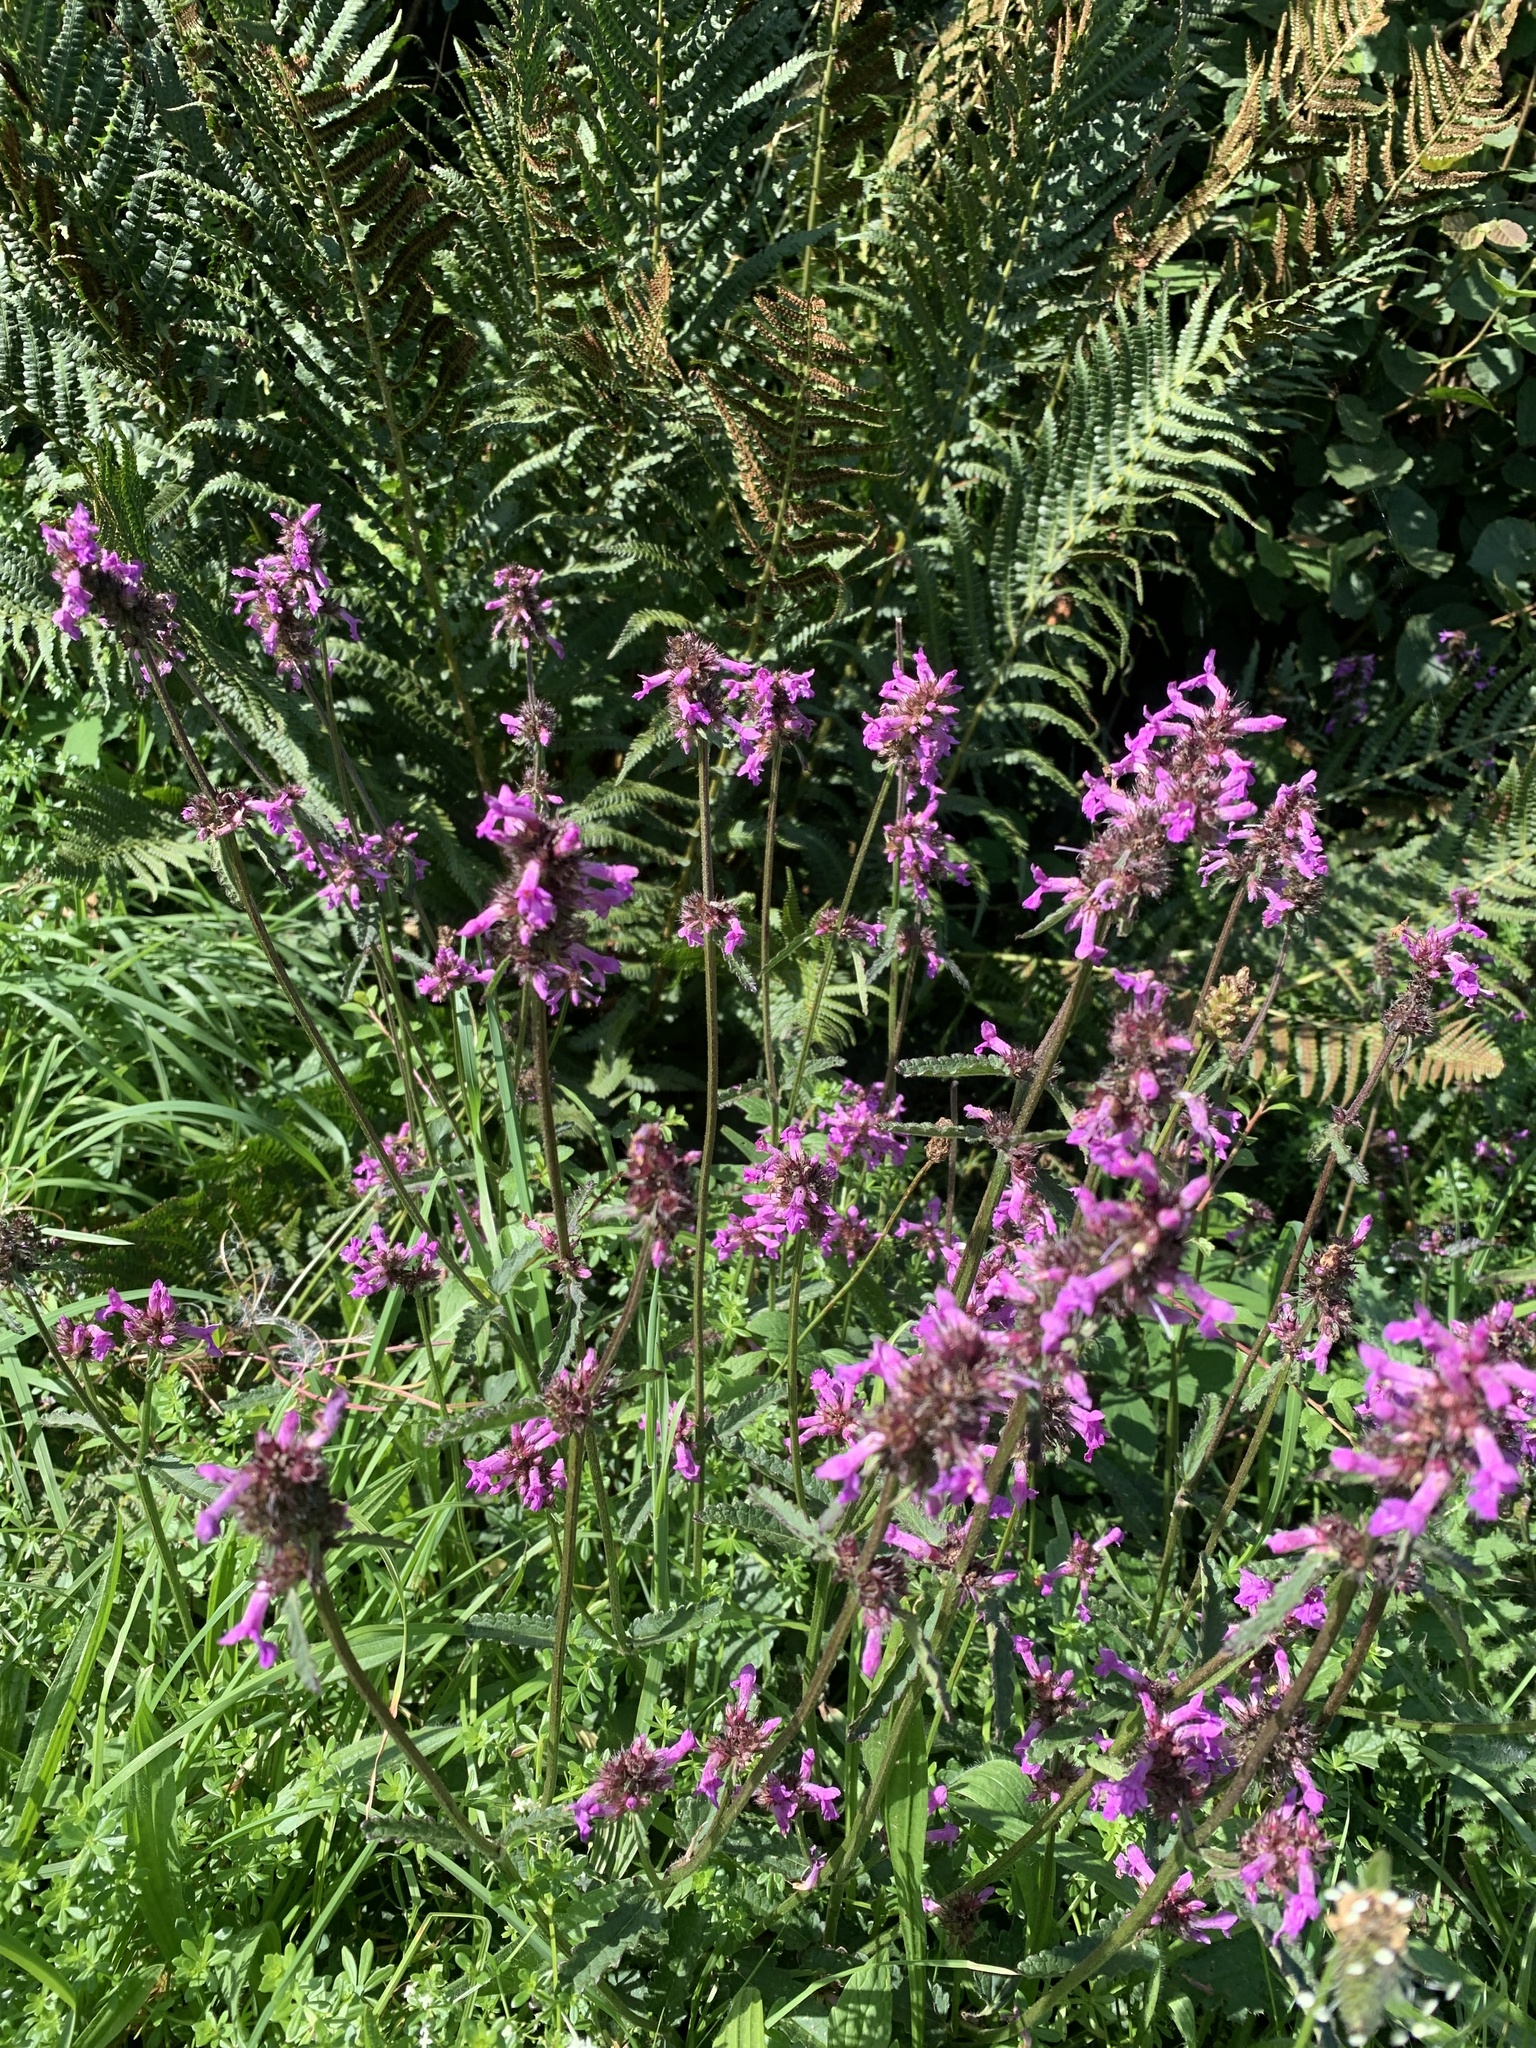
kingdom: Plantae
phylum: Tracheophyta
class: Magnoliopsida
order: Lamiales
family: Lamiaceae
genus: Betonica
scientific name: Betonica officinalis
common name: Bishop's-wort
